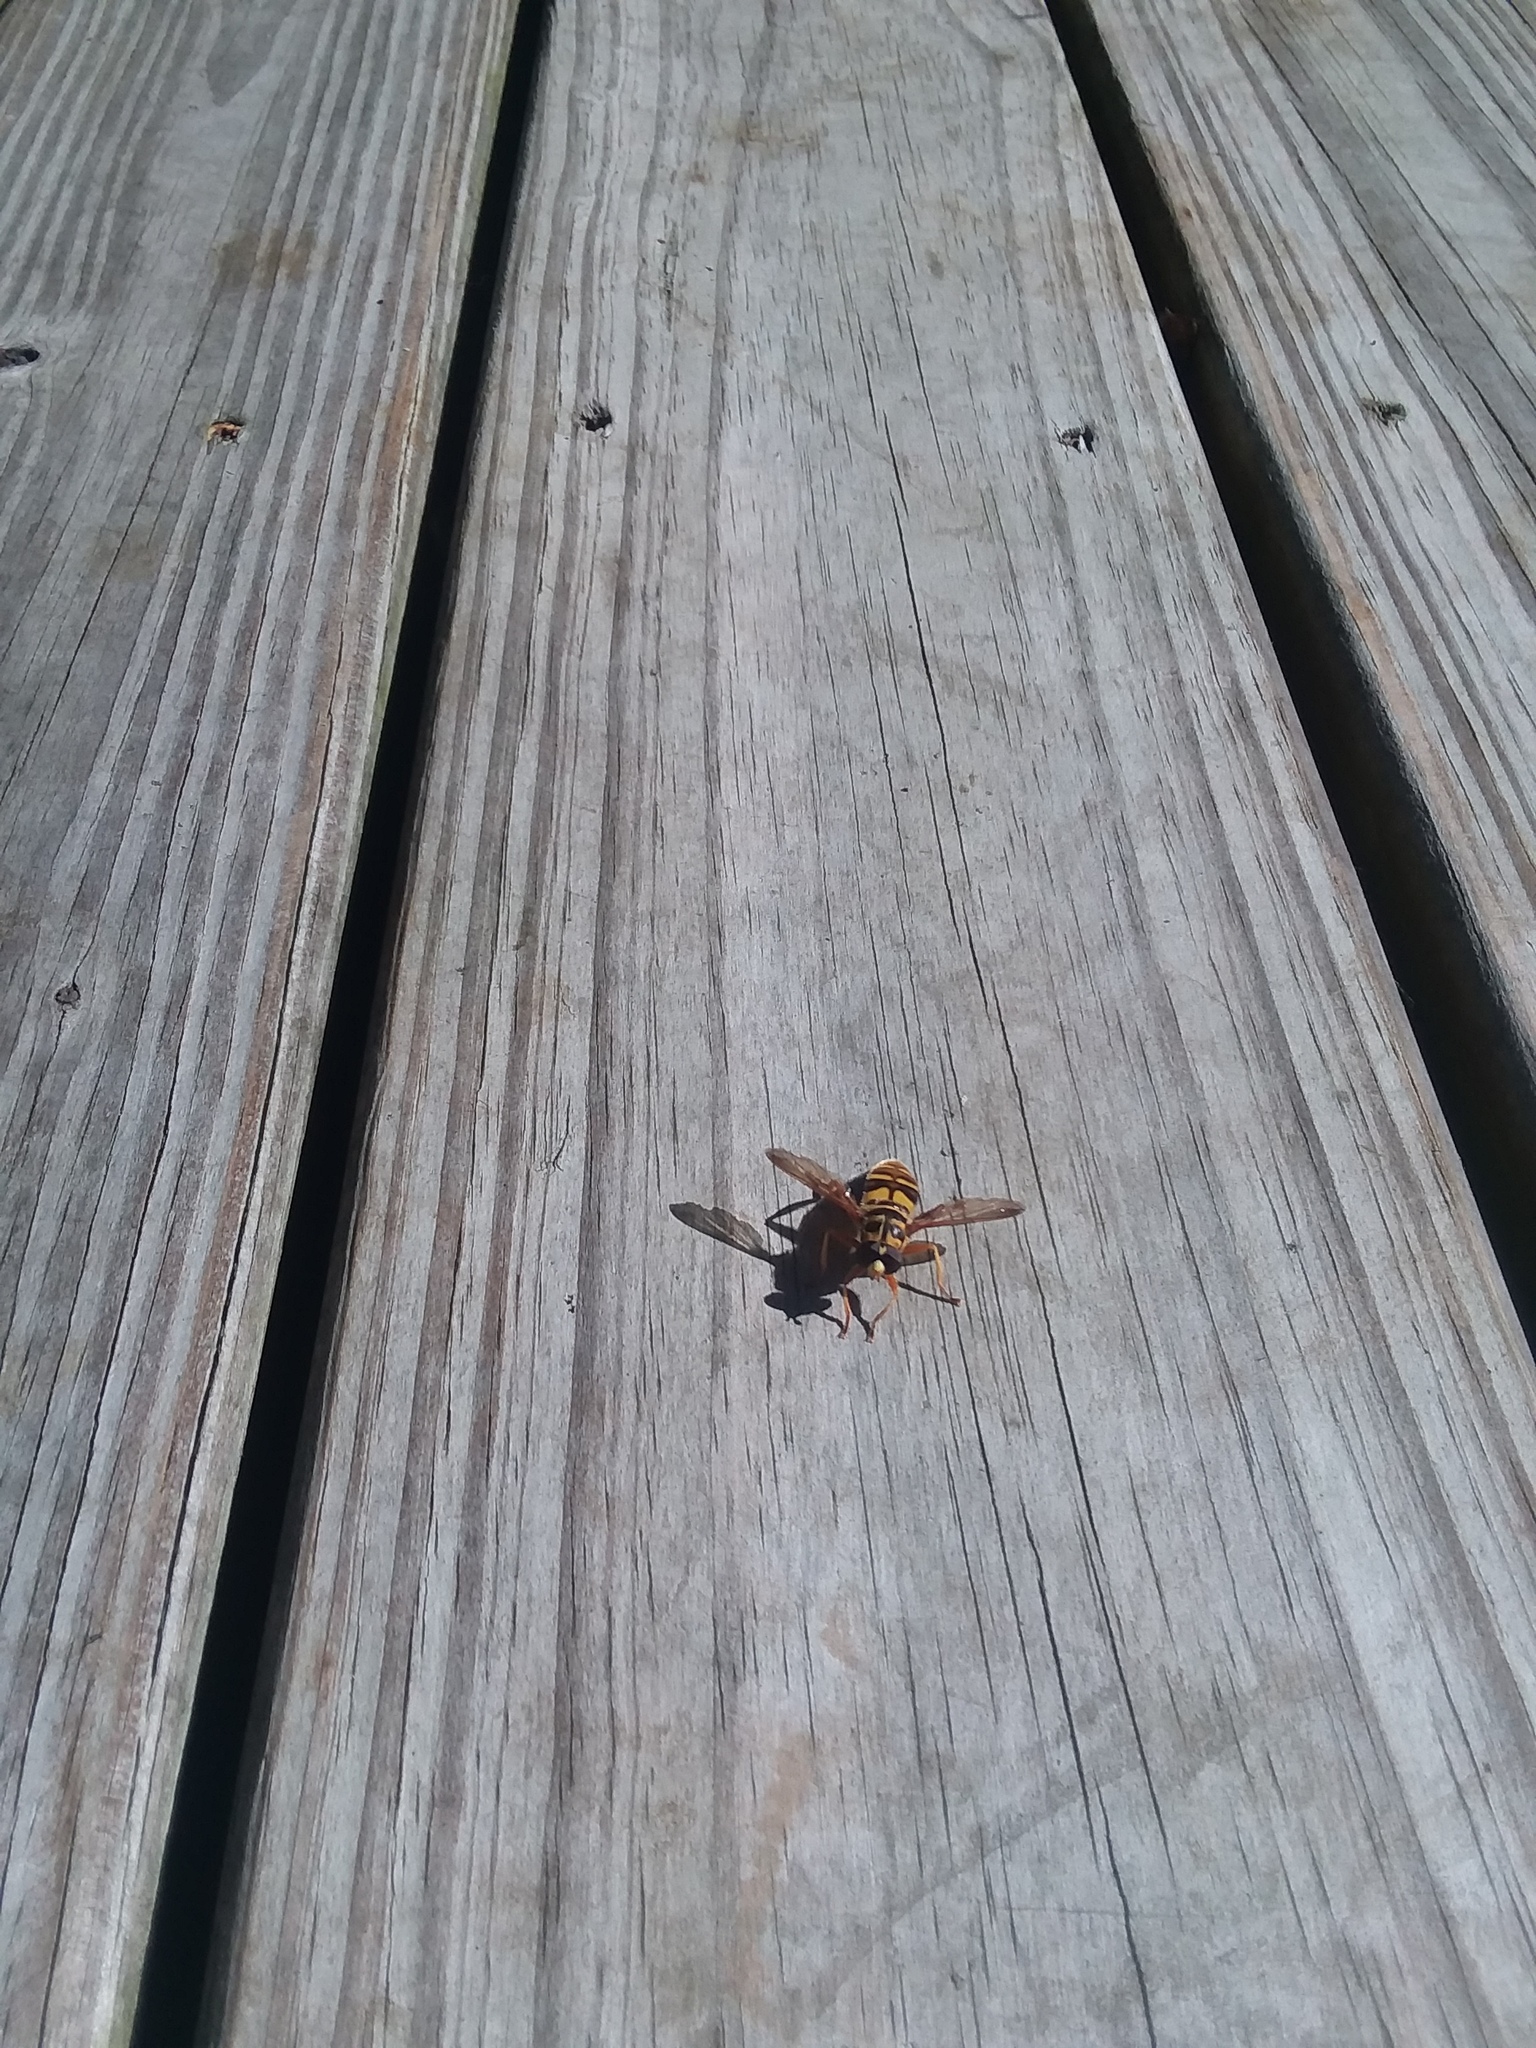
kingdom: Animalia
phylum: Arthropoda
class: Insecta
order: Diptera
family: Syrphidae
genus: Milesia
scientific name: Milesia virginiensis
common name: Virginia giant
